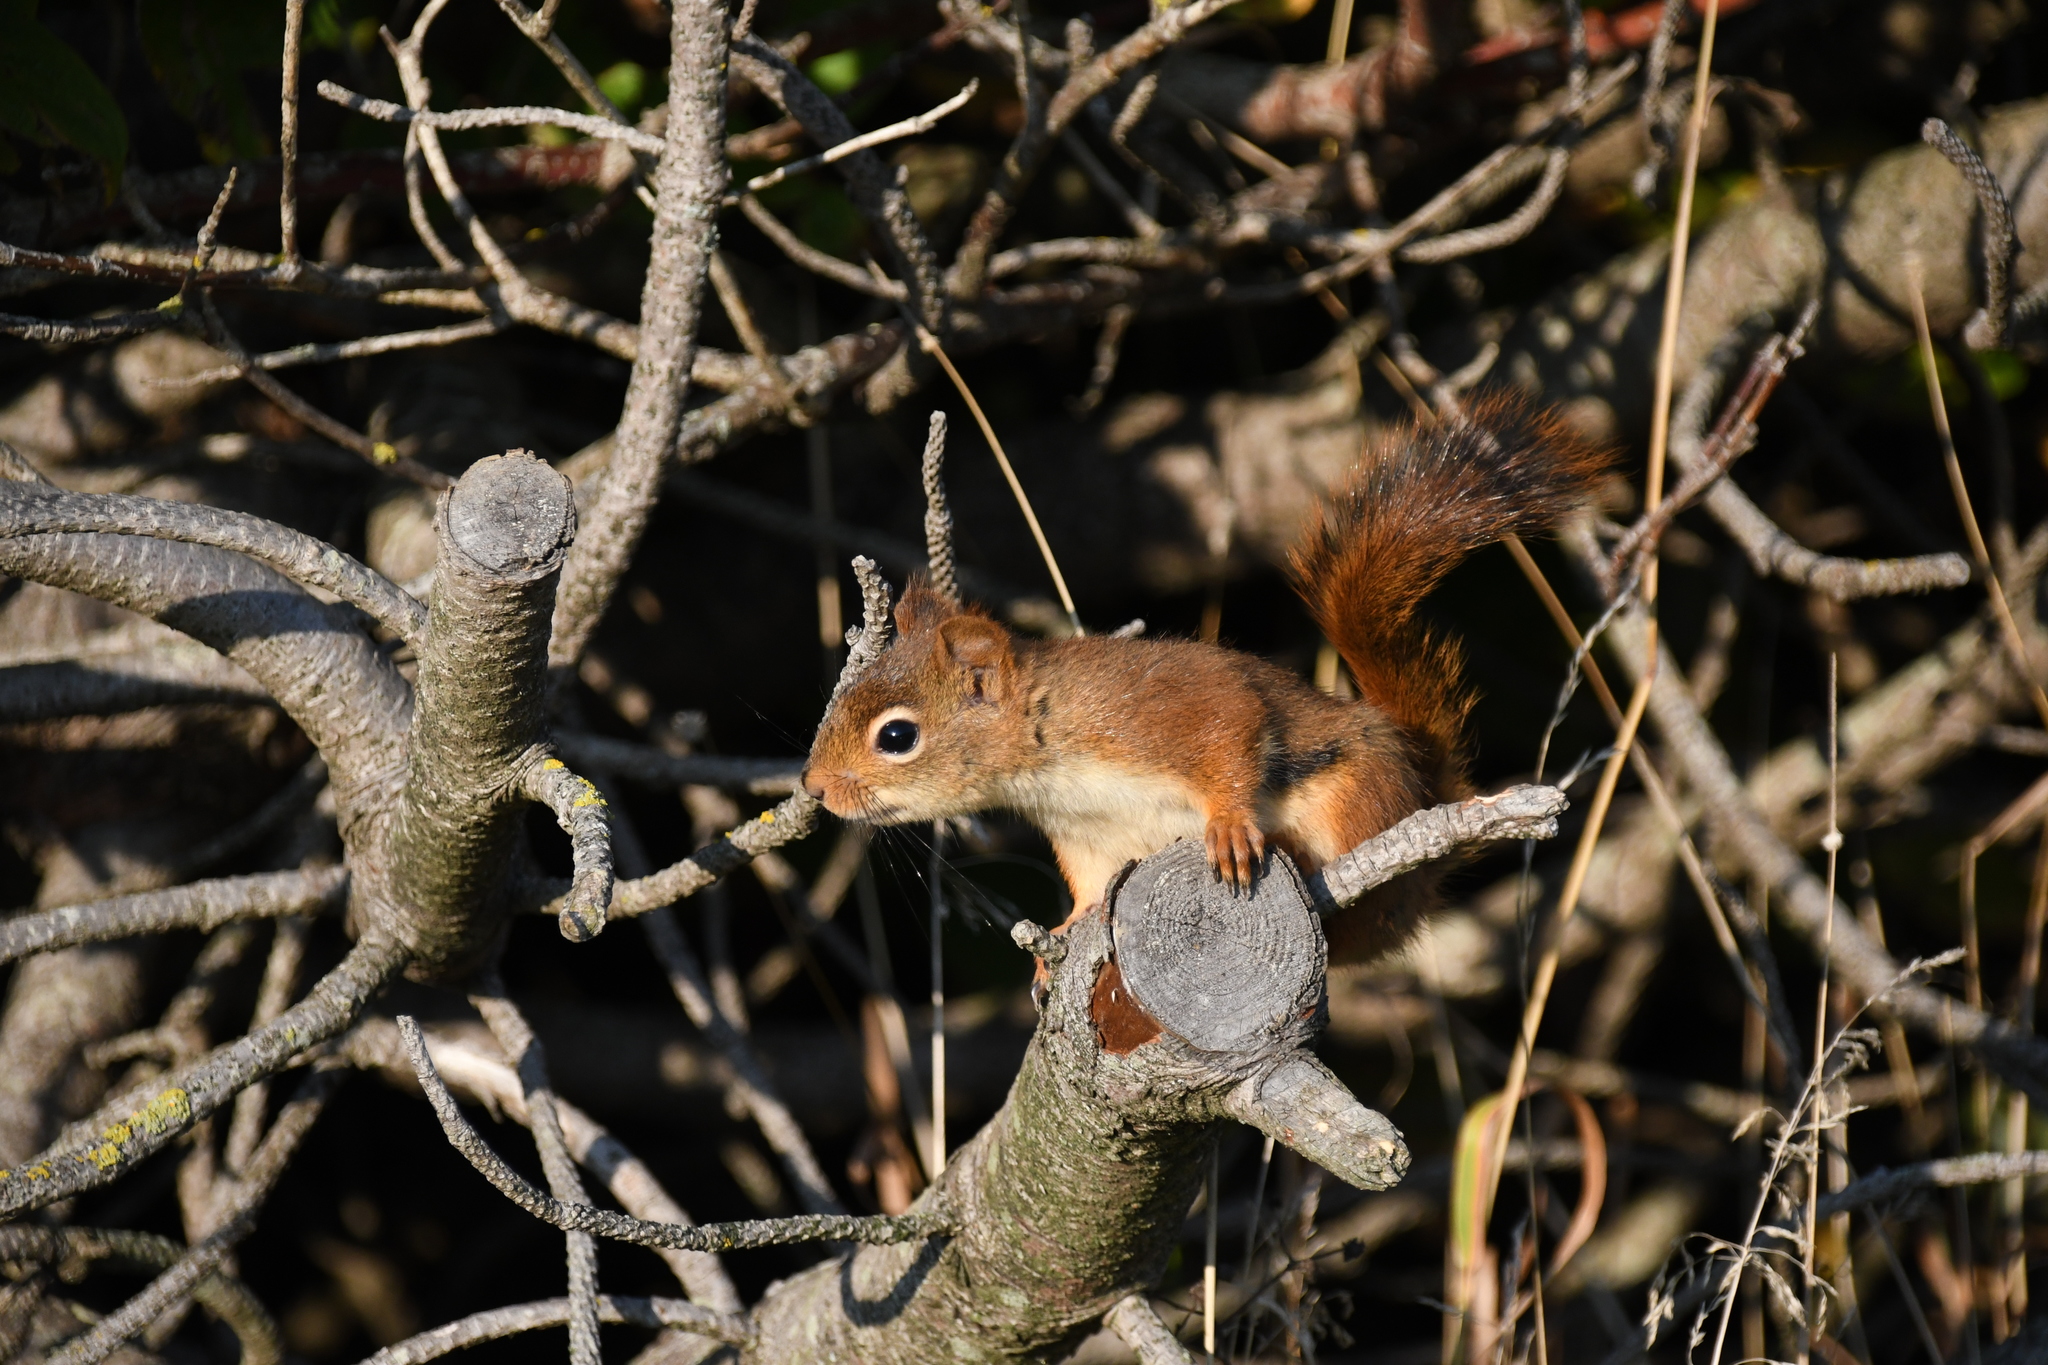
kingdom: Animalia
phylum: Chordata
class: Mammalia
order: Rodentia
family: Sciuridae
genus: Tamiasciurus
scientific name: Tamiasciurus hudsonicus
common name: Red squirrel
